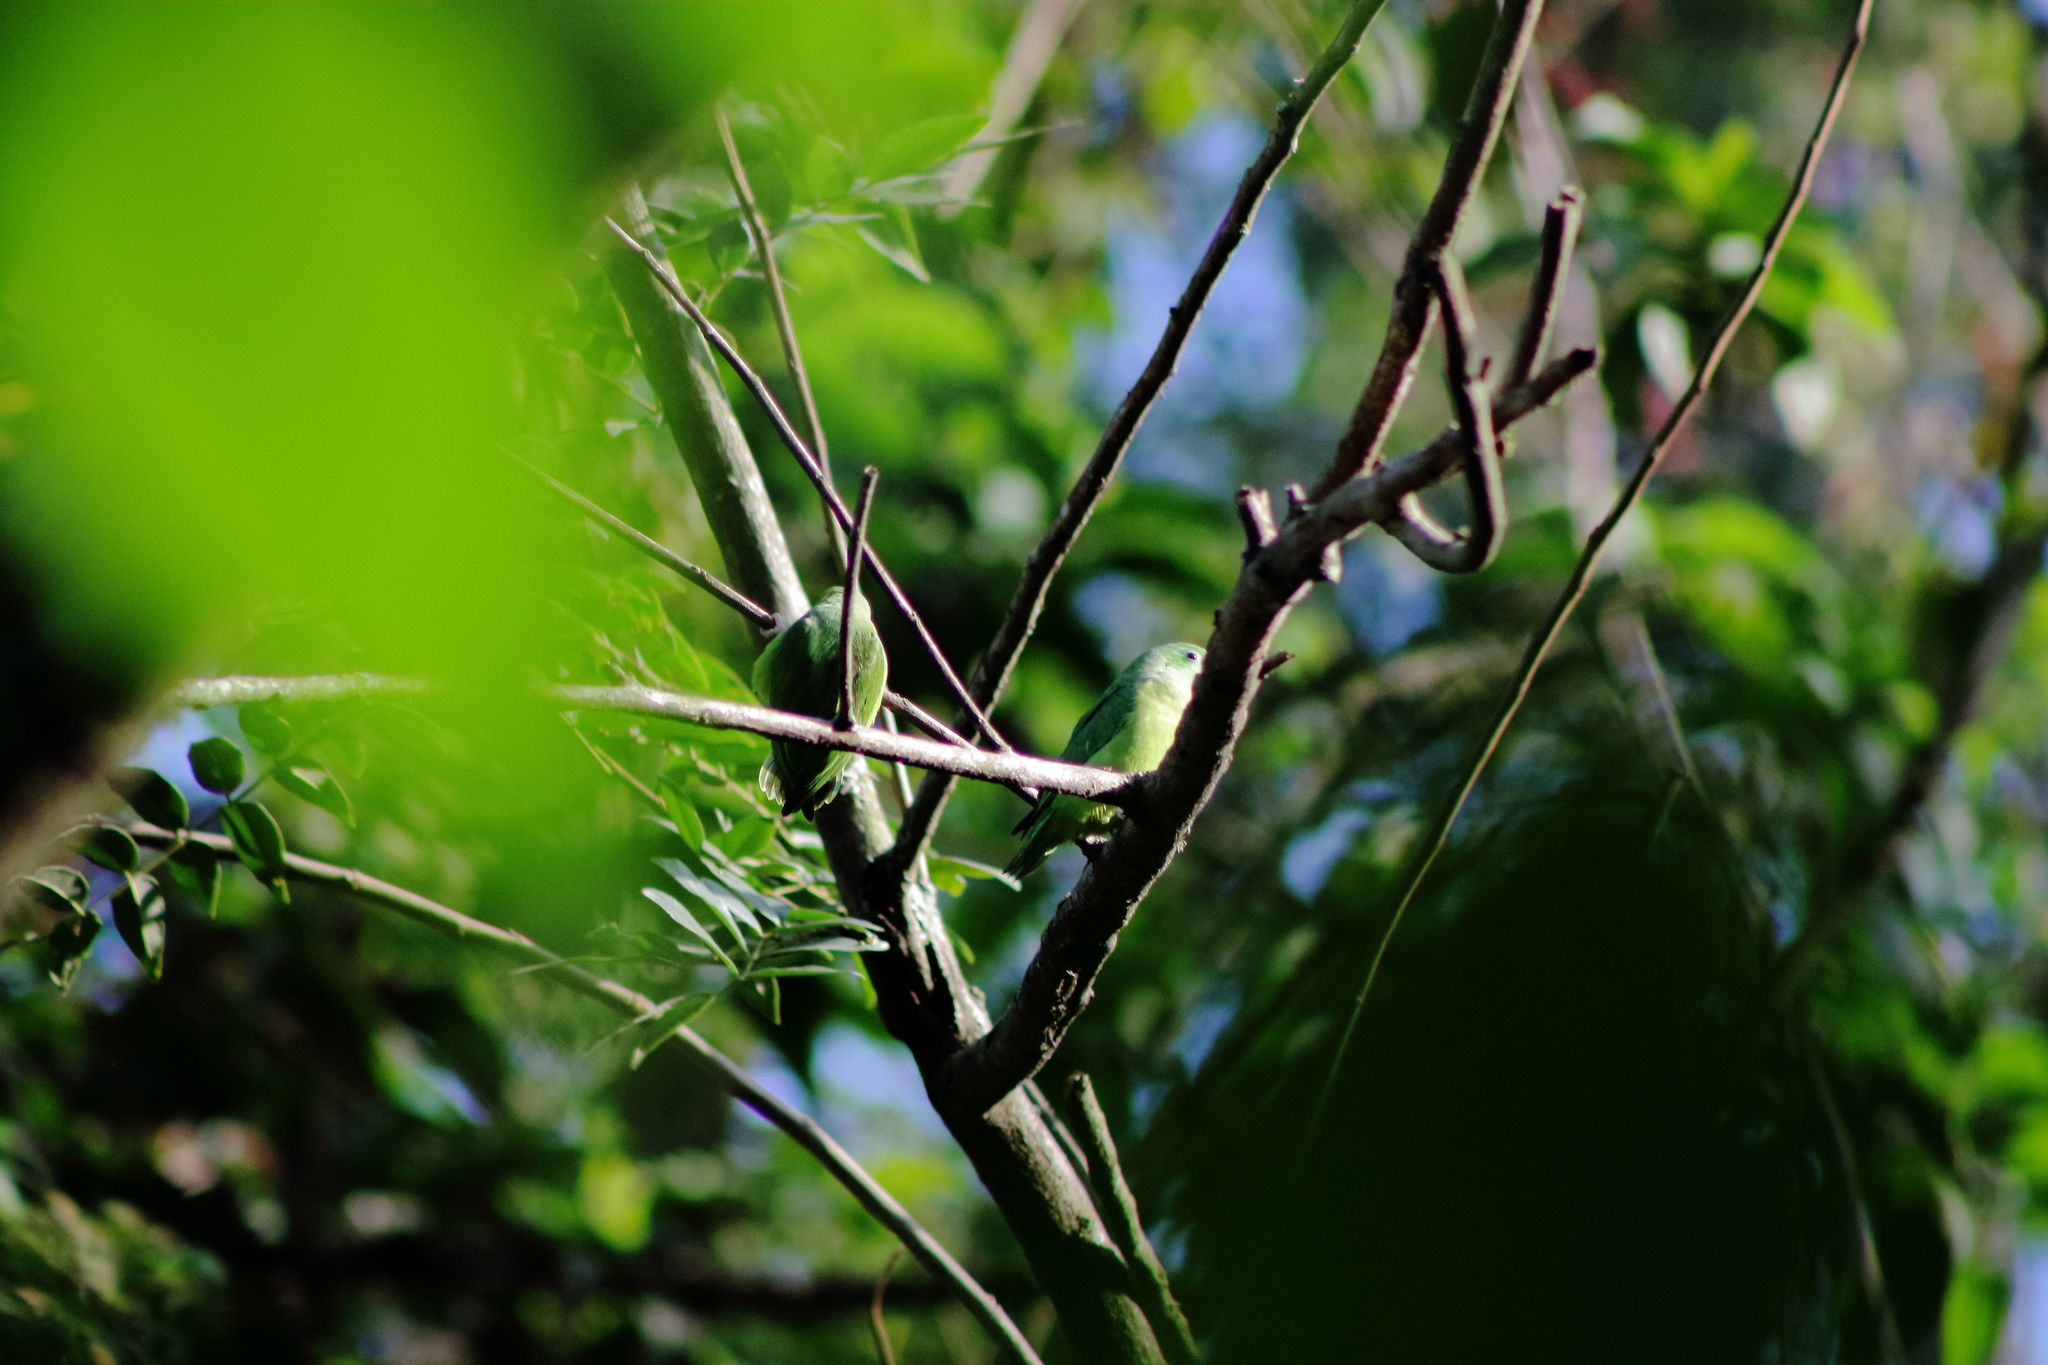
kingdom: Animalia
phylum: Chordata
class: Aves
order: Psittaciformes
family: Psittacidae
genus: Forpus
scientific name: Forpus conspicillatus
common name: Spectacled parrotlet
